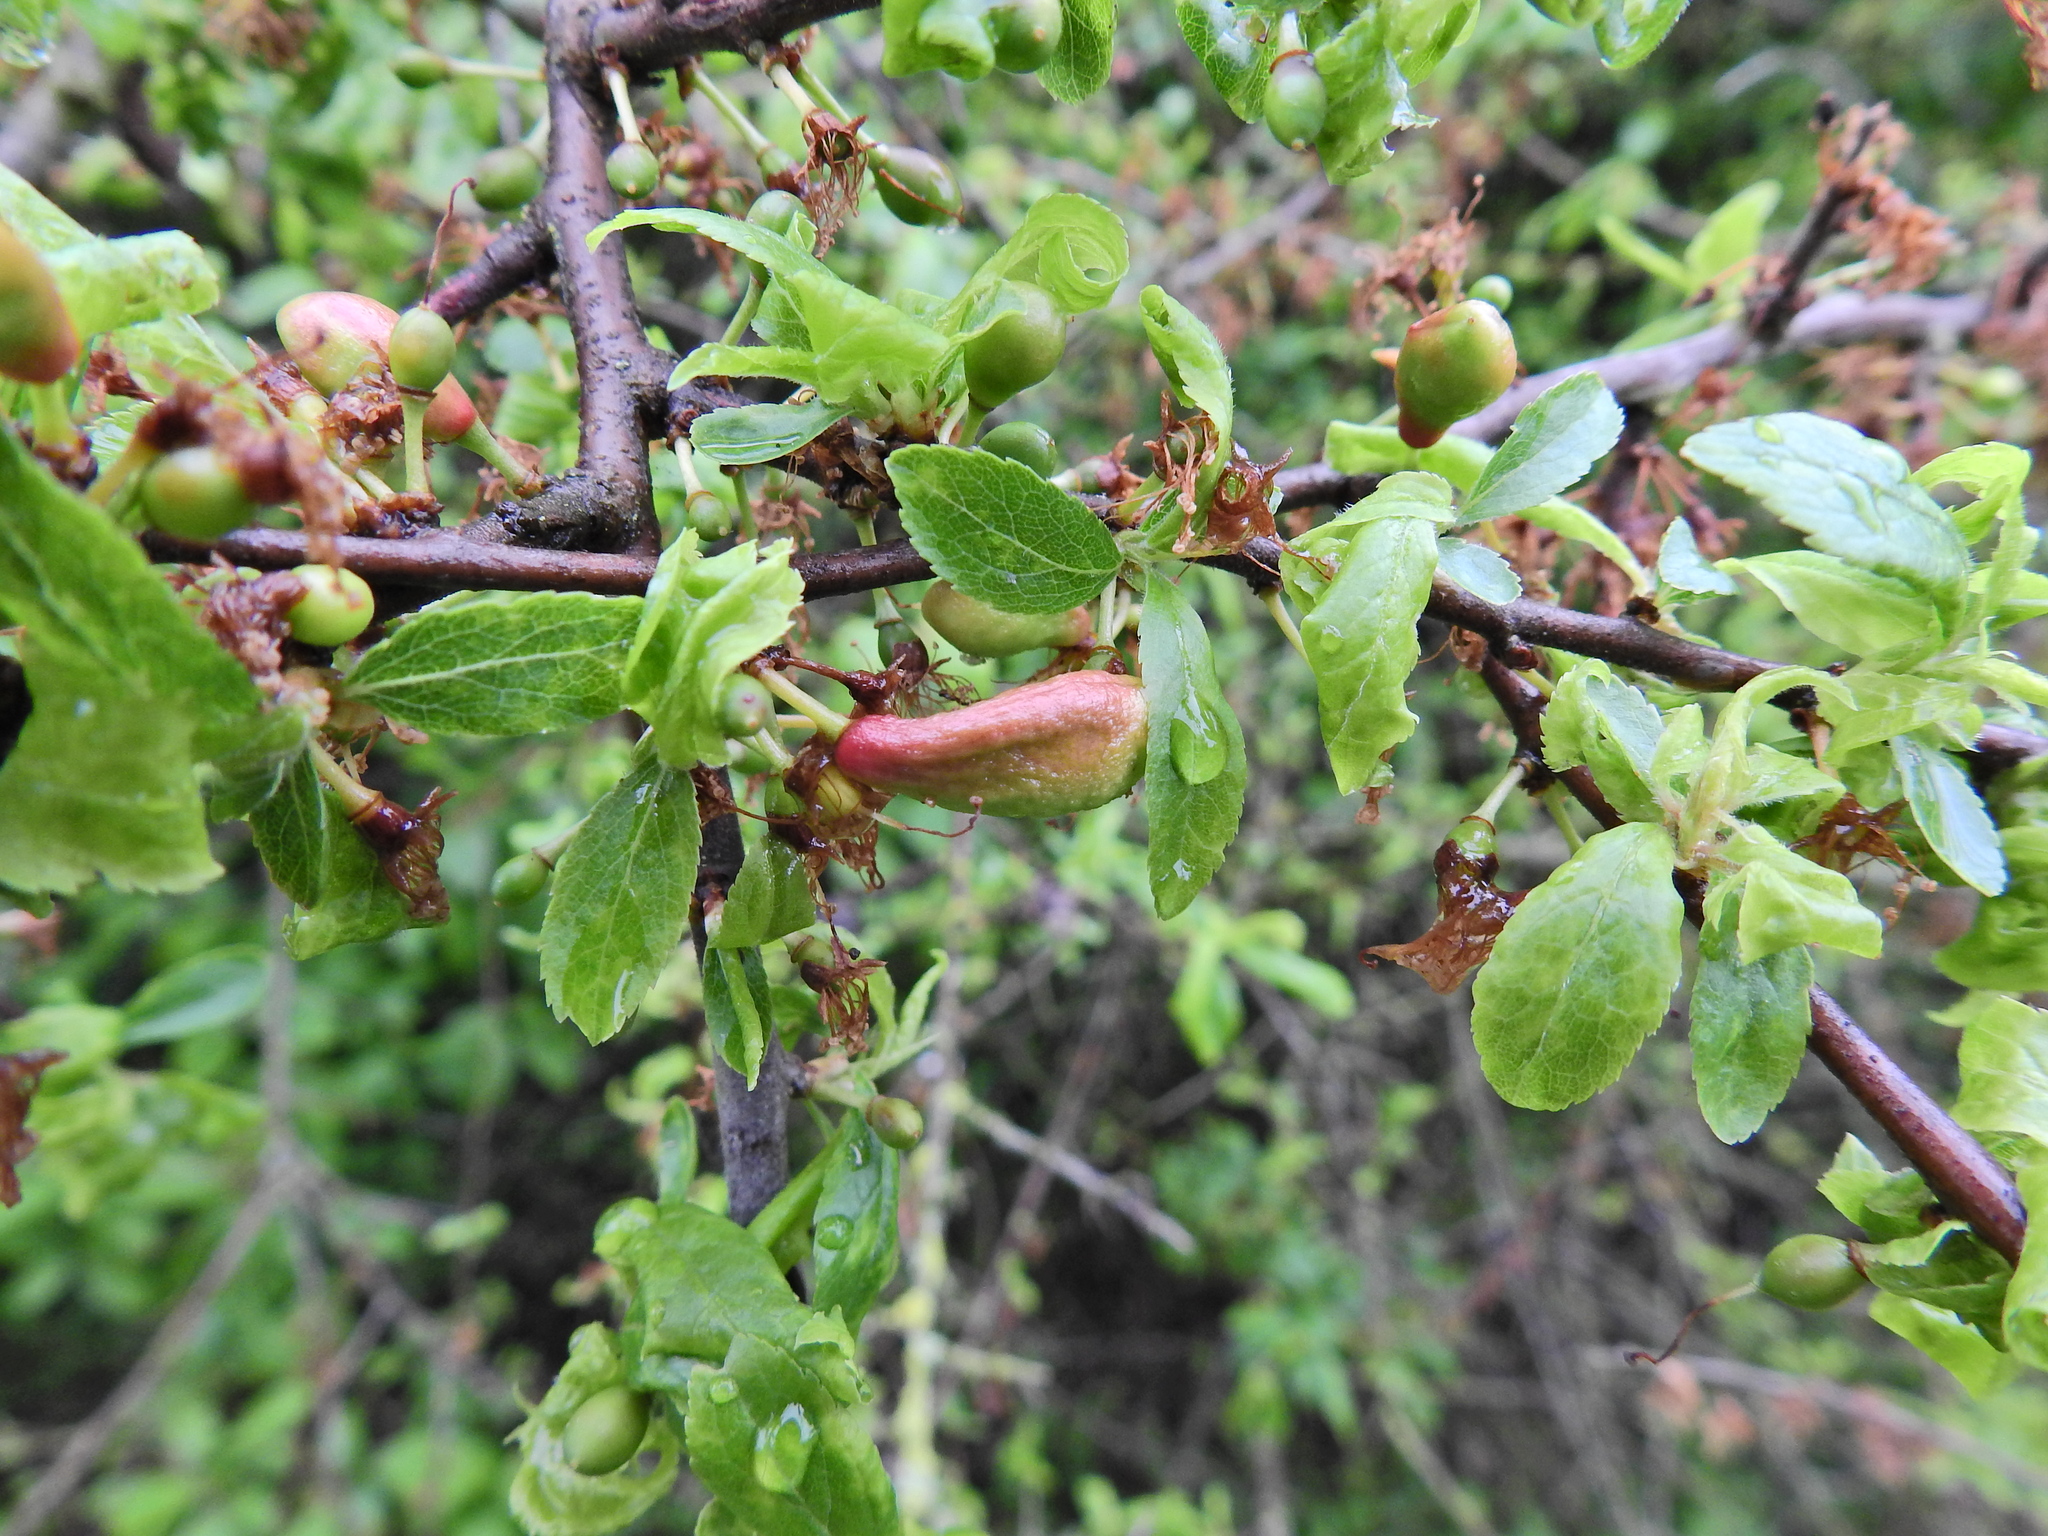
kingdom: Fungi
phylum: Ascomycota
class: Taphrinomycetes
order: Taphrinales
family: Taphrinaceae
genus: Taphrina
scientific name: Taphrina pruni
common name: Pocket plum
